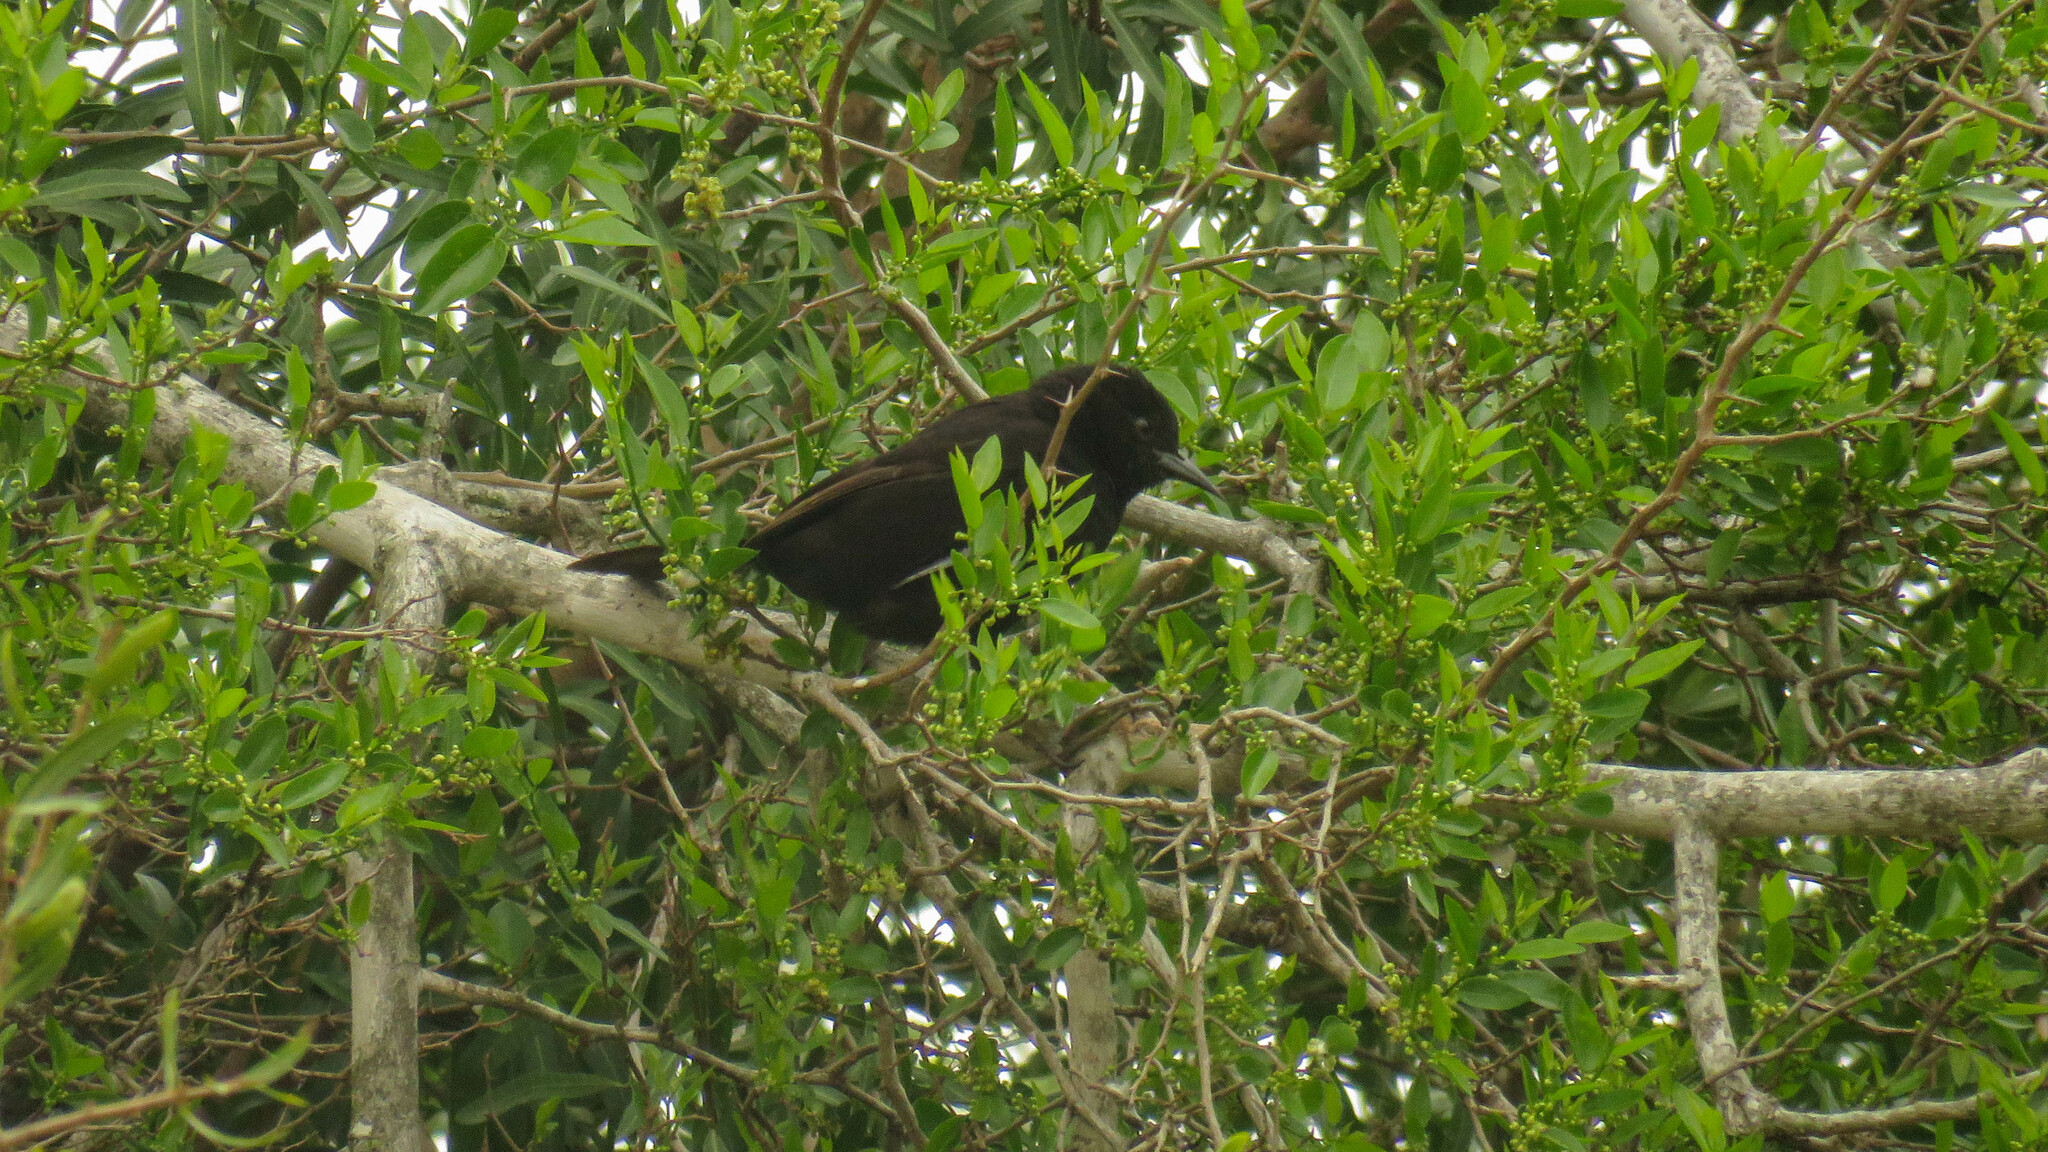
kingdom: Animalia
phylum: Chordata
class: Aves
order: Passeriformes
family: Icteridae
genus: Icterus
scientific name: Icterus cayanensis
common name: Epaulet oriole
